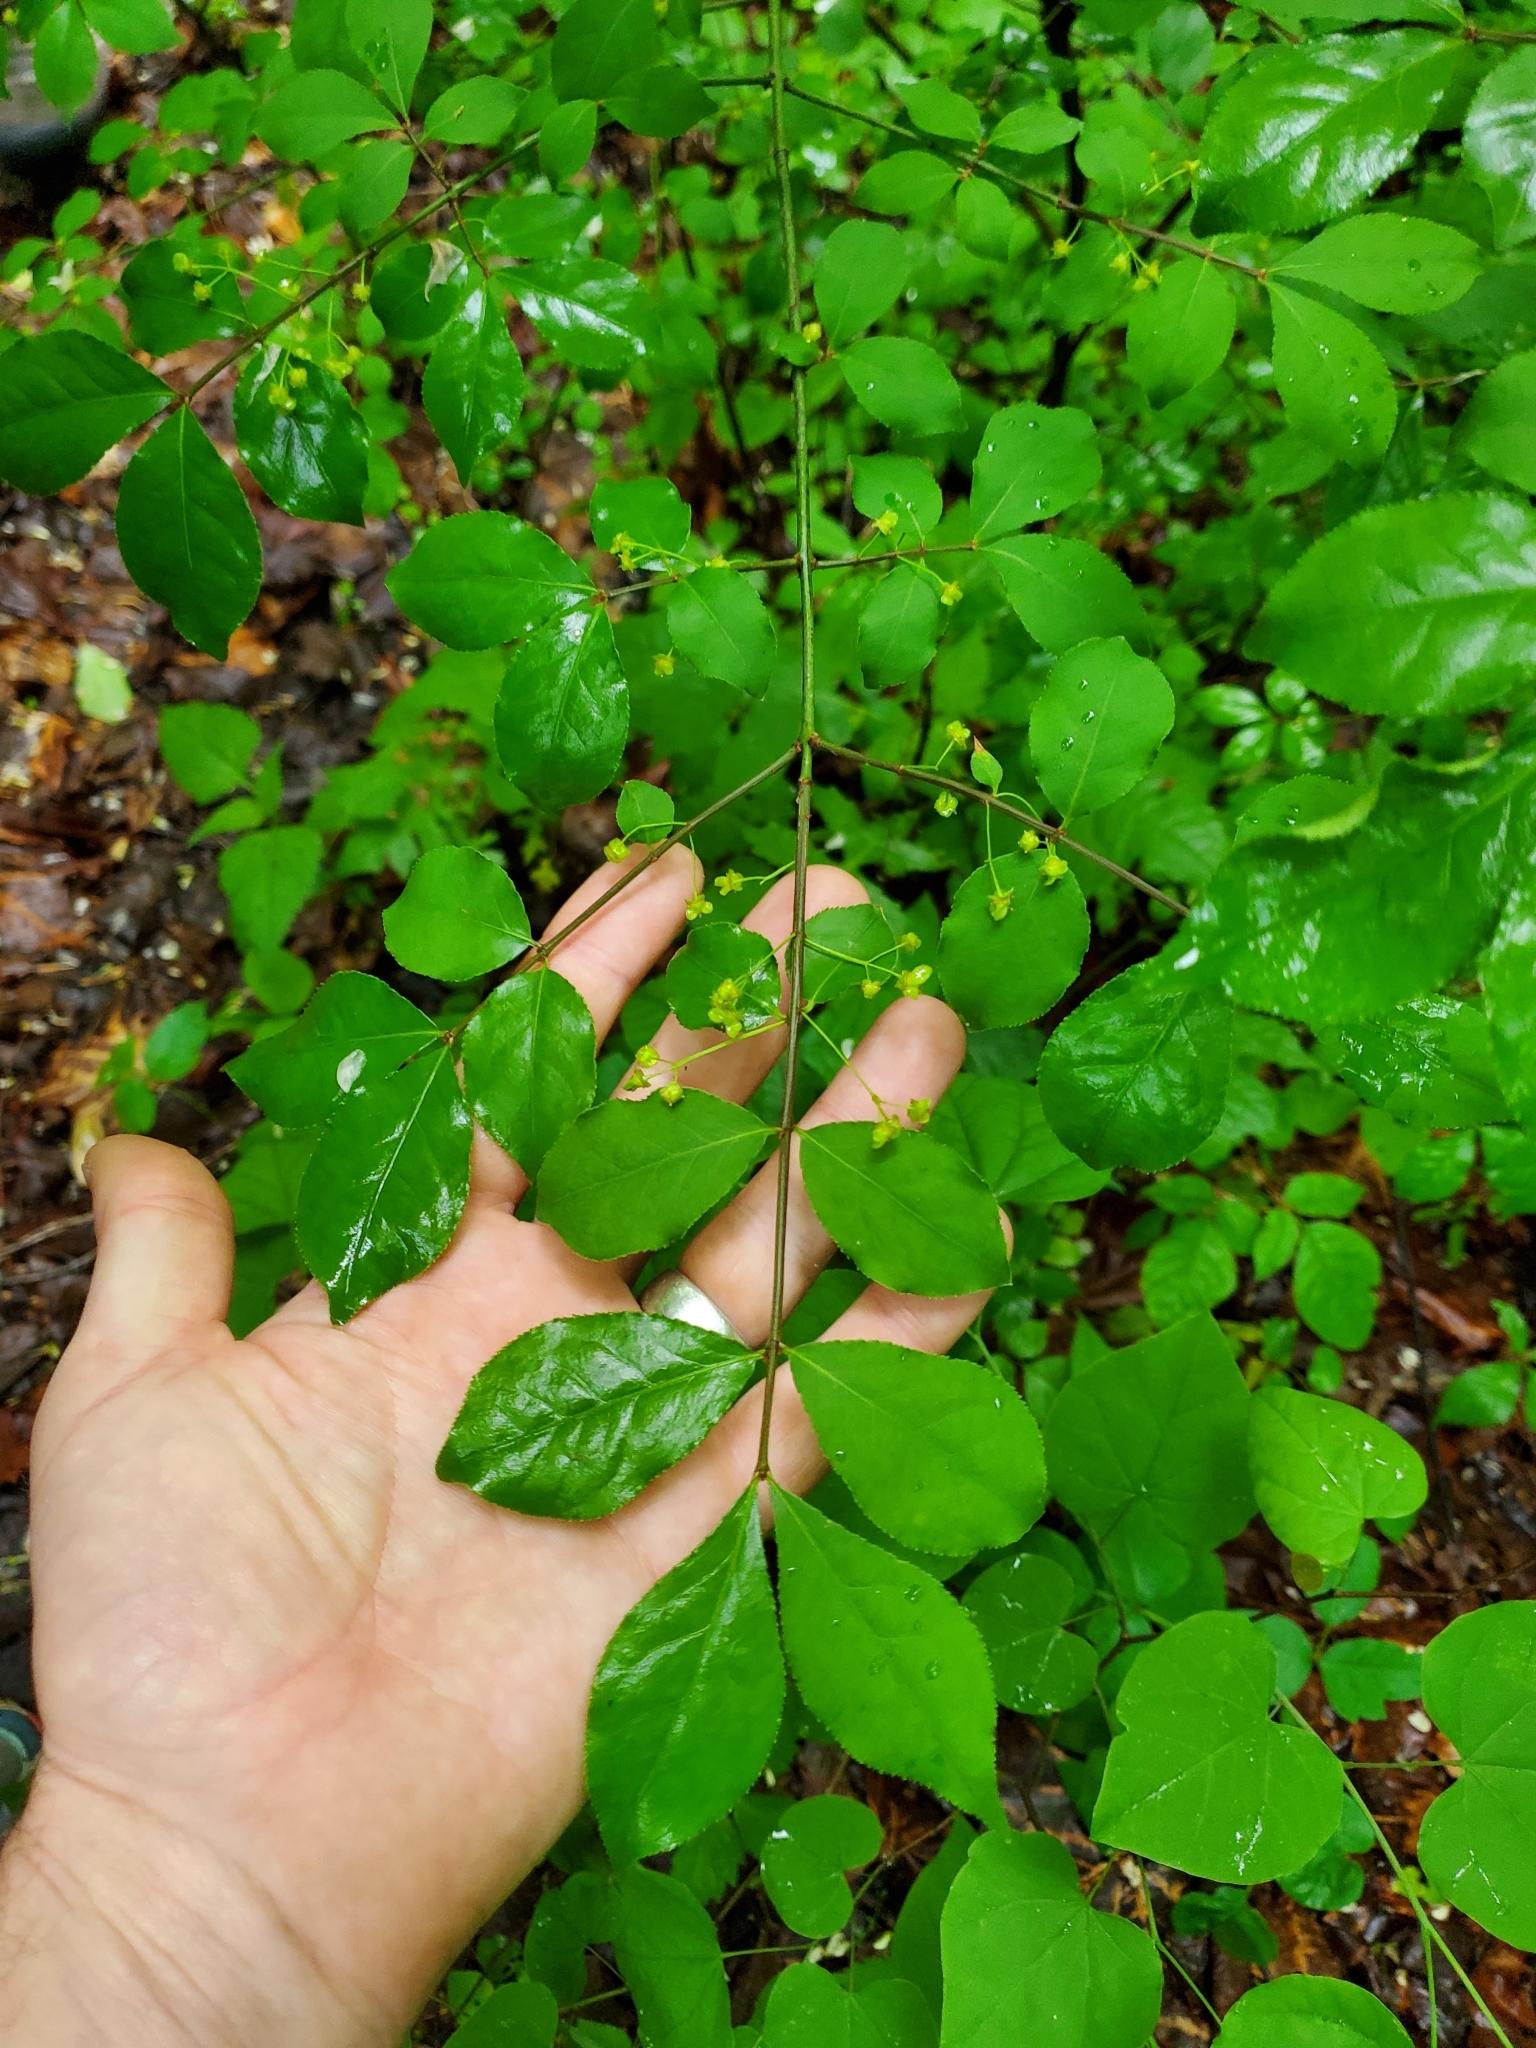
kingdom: Plantae
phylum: Tracheophyta
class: Magnoliopsida
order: Celastrales
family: Celastraceae
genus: Euonymus
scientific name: Euonymus alatus
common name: Winged euonymus
